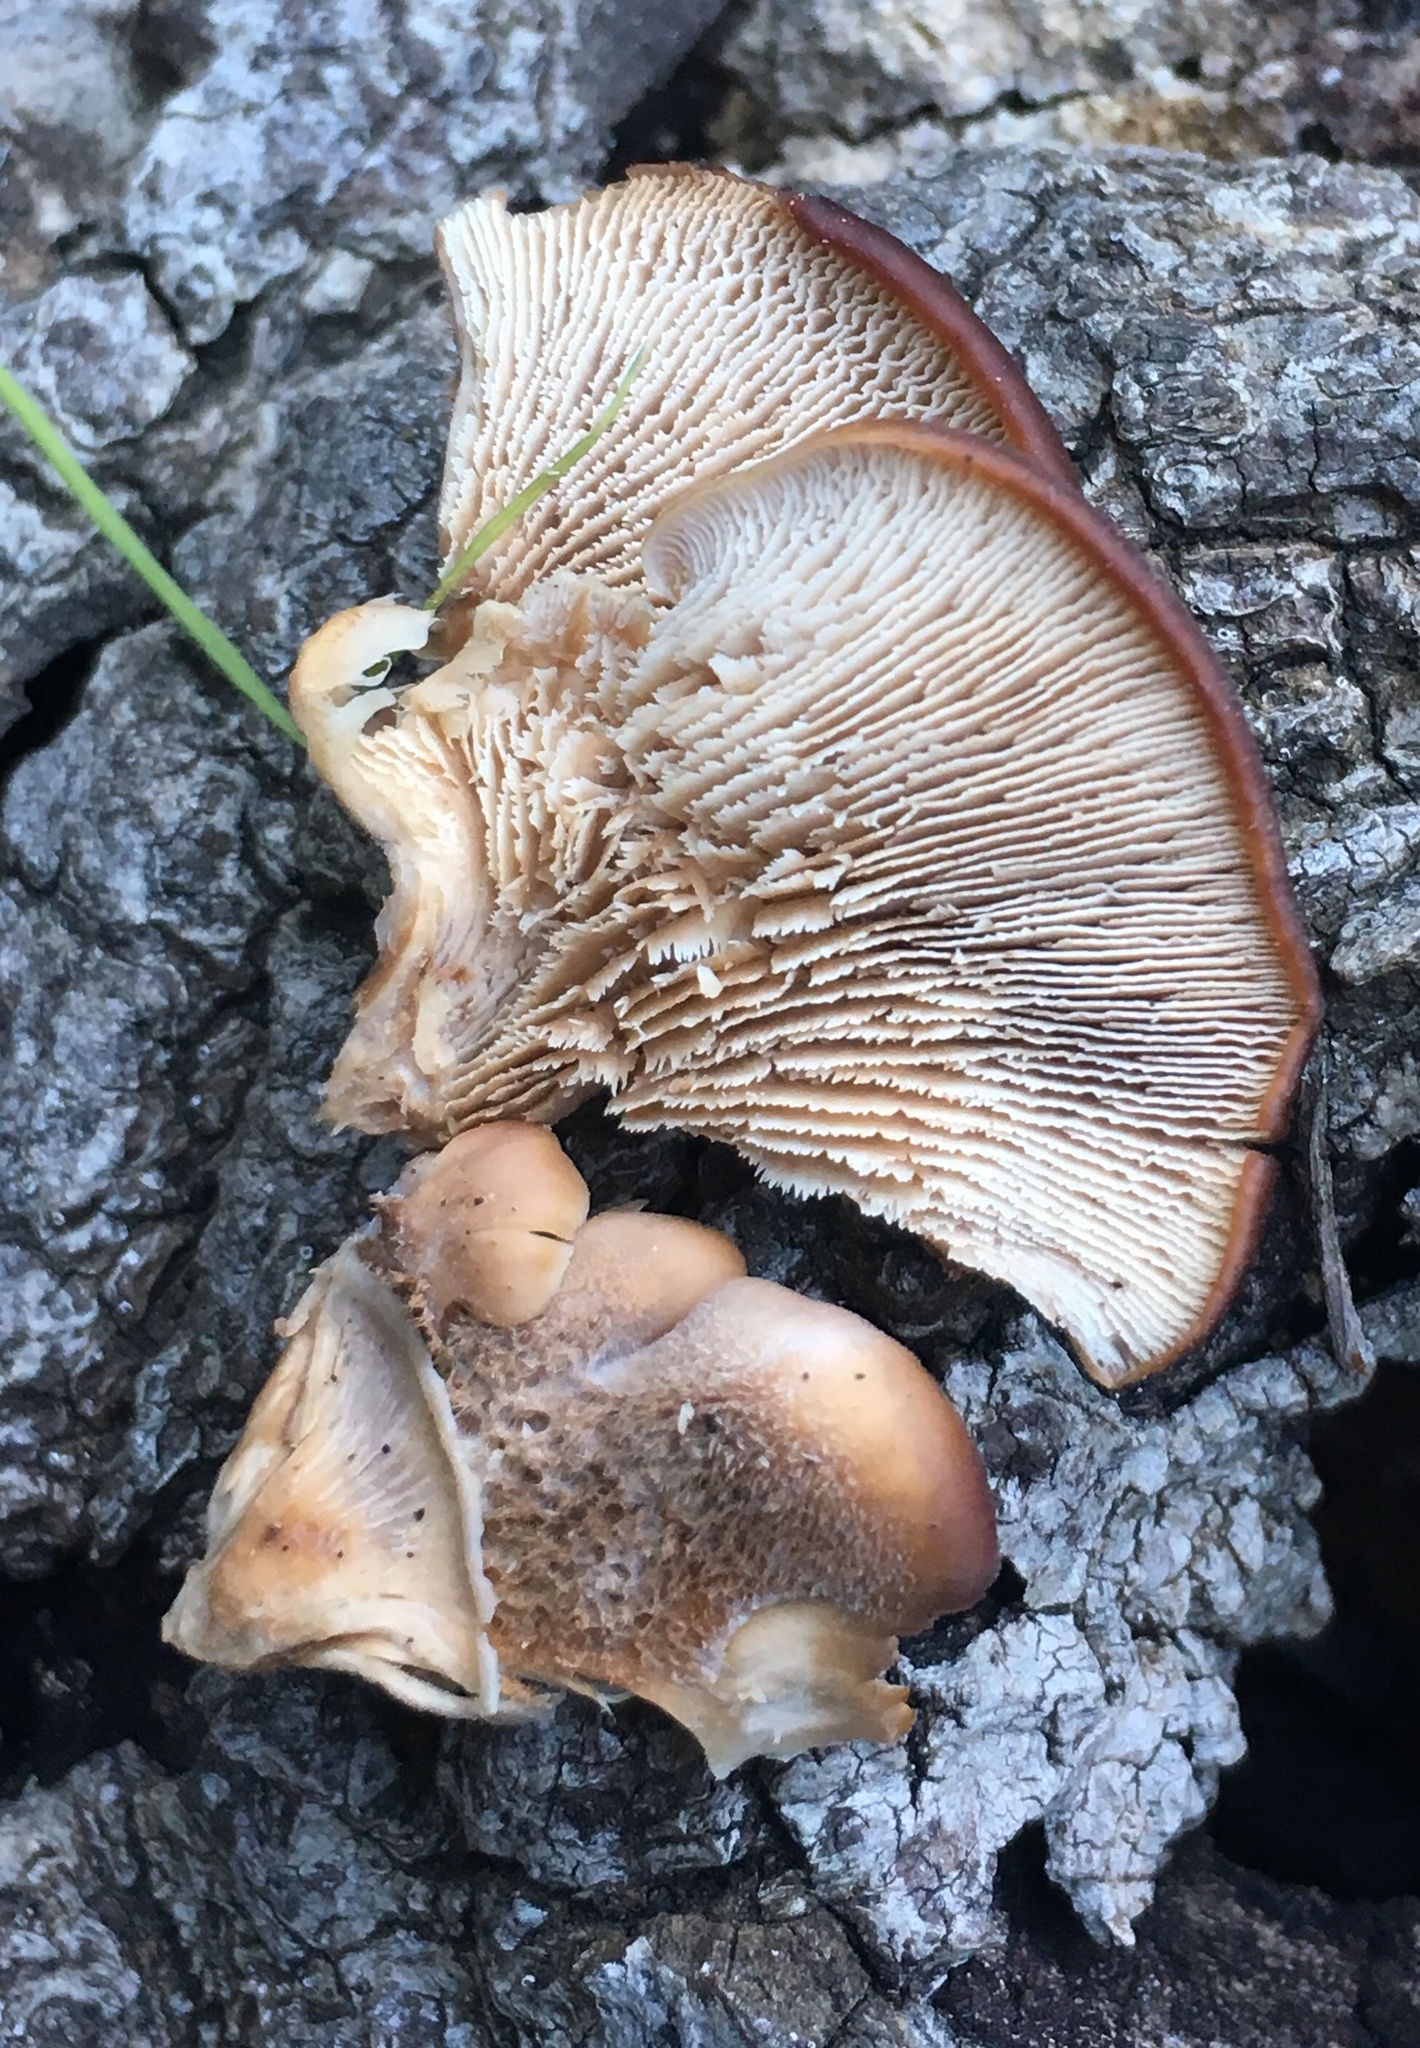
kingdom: Fungi
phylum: Basidiomycota
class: Agaricomycetes
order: Russulales
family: Auriscalpiaceae
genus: Lentinellus
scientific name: Lentinellus ursinus
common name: Bear lentinus
